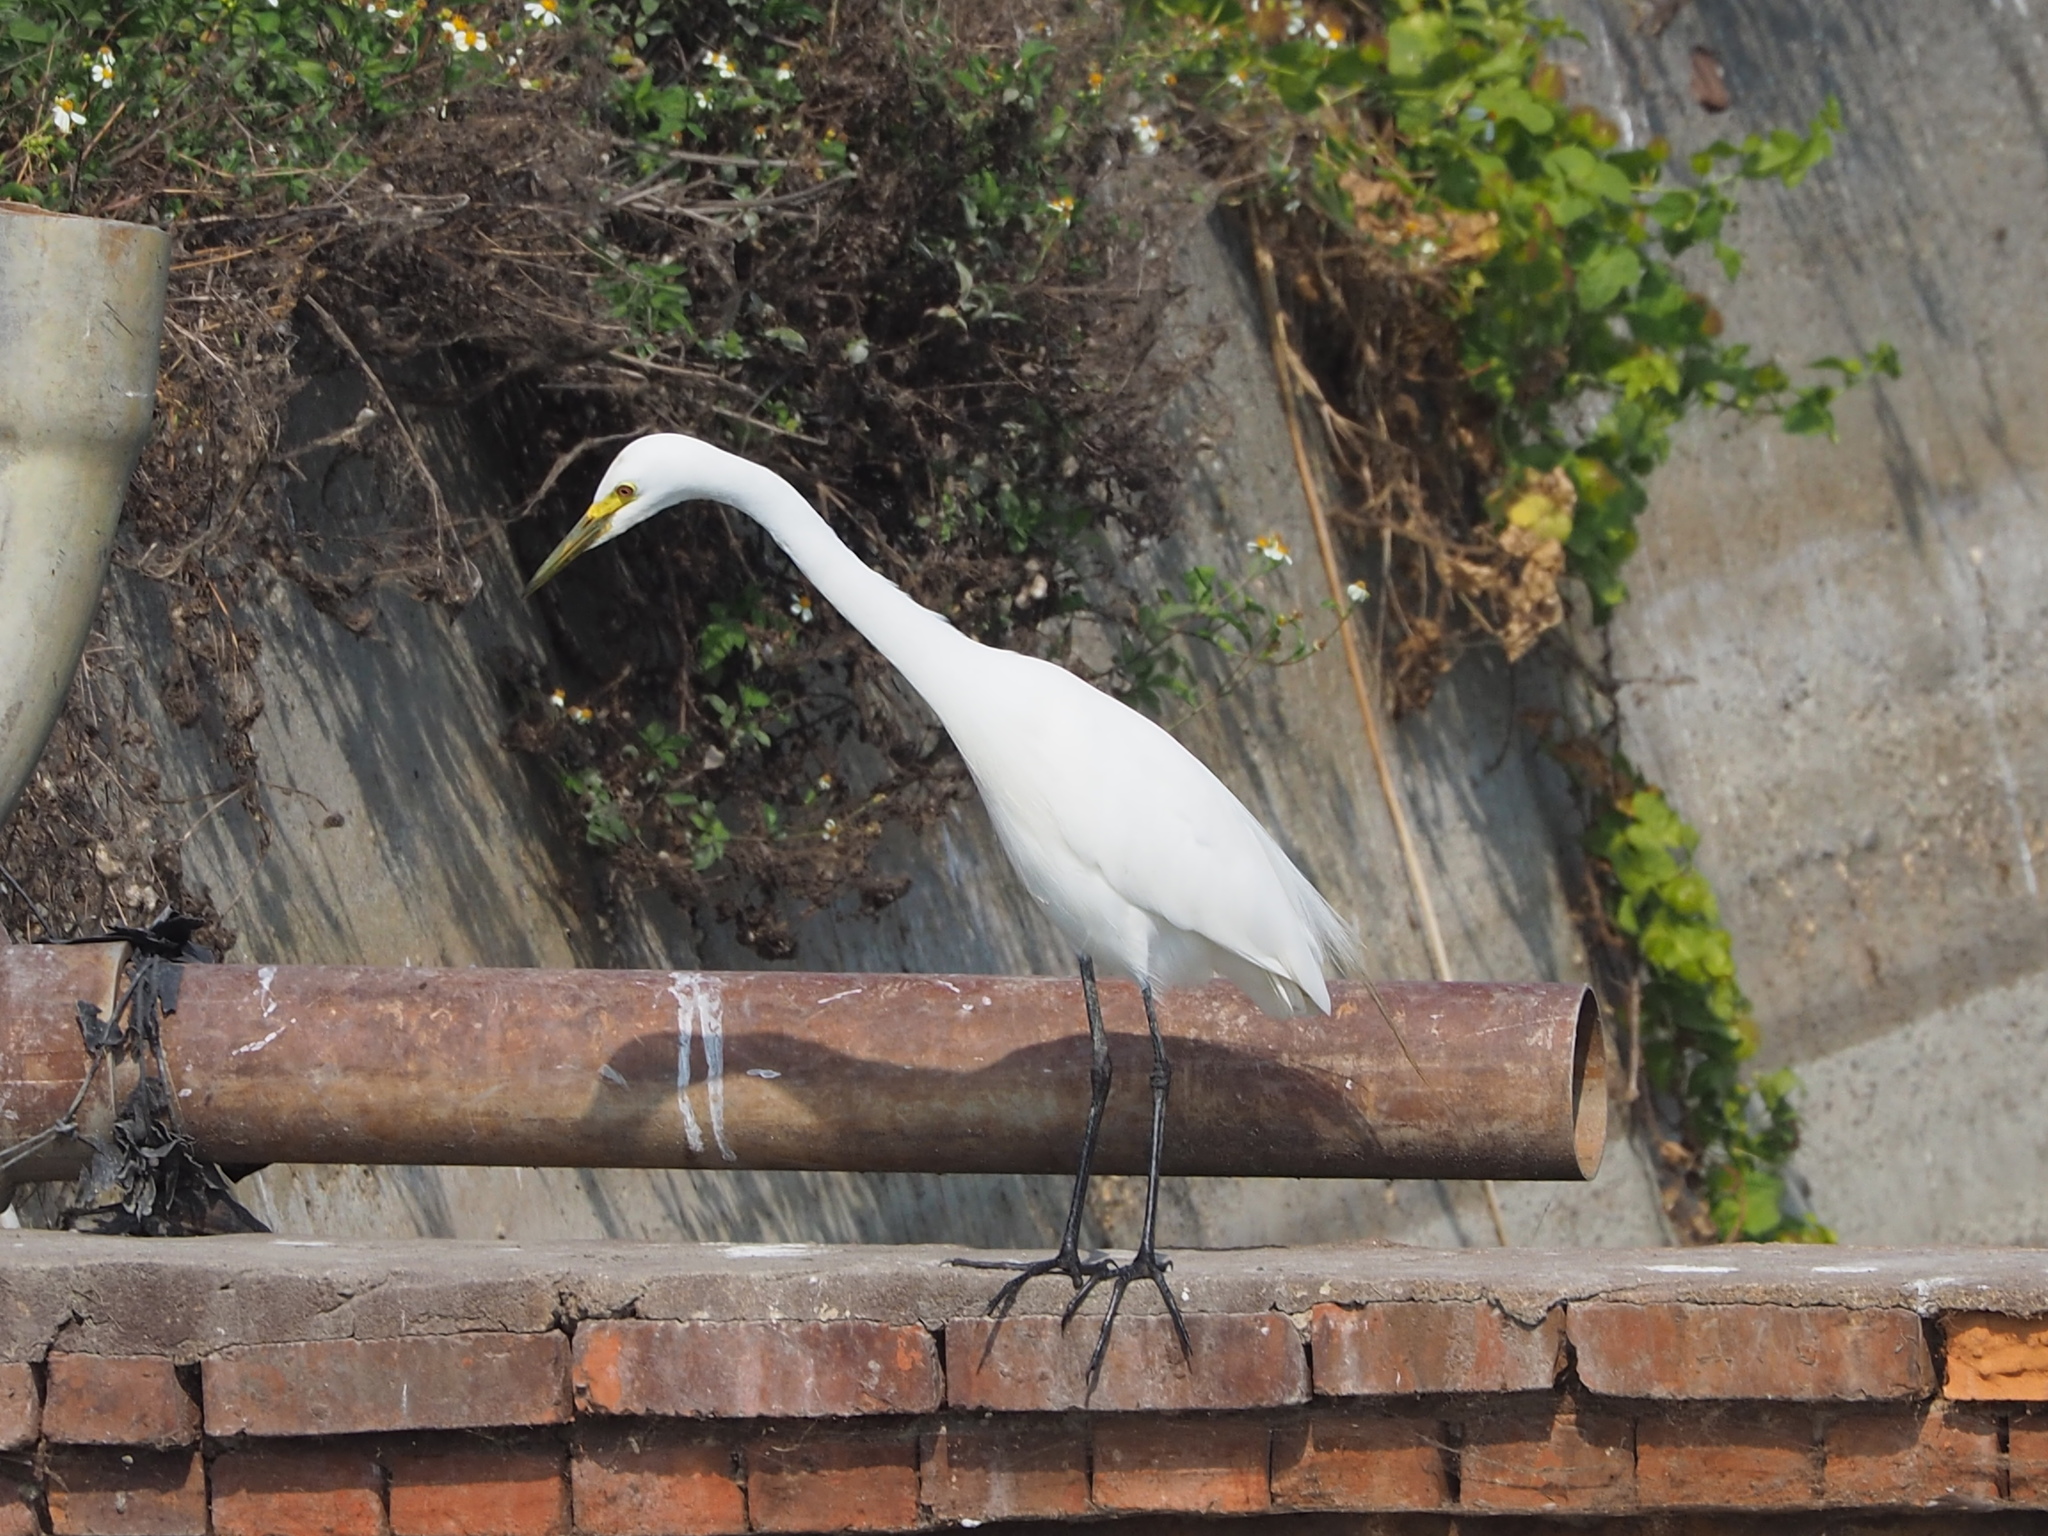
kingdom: Animalia
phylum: Chordata
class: Aves
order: Pelecaniformes
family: Ardeidae
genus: Egretta
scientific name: Egretta intermedia
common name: Intermediate egret
